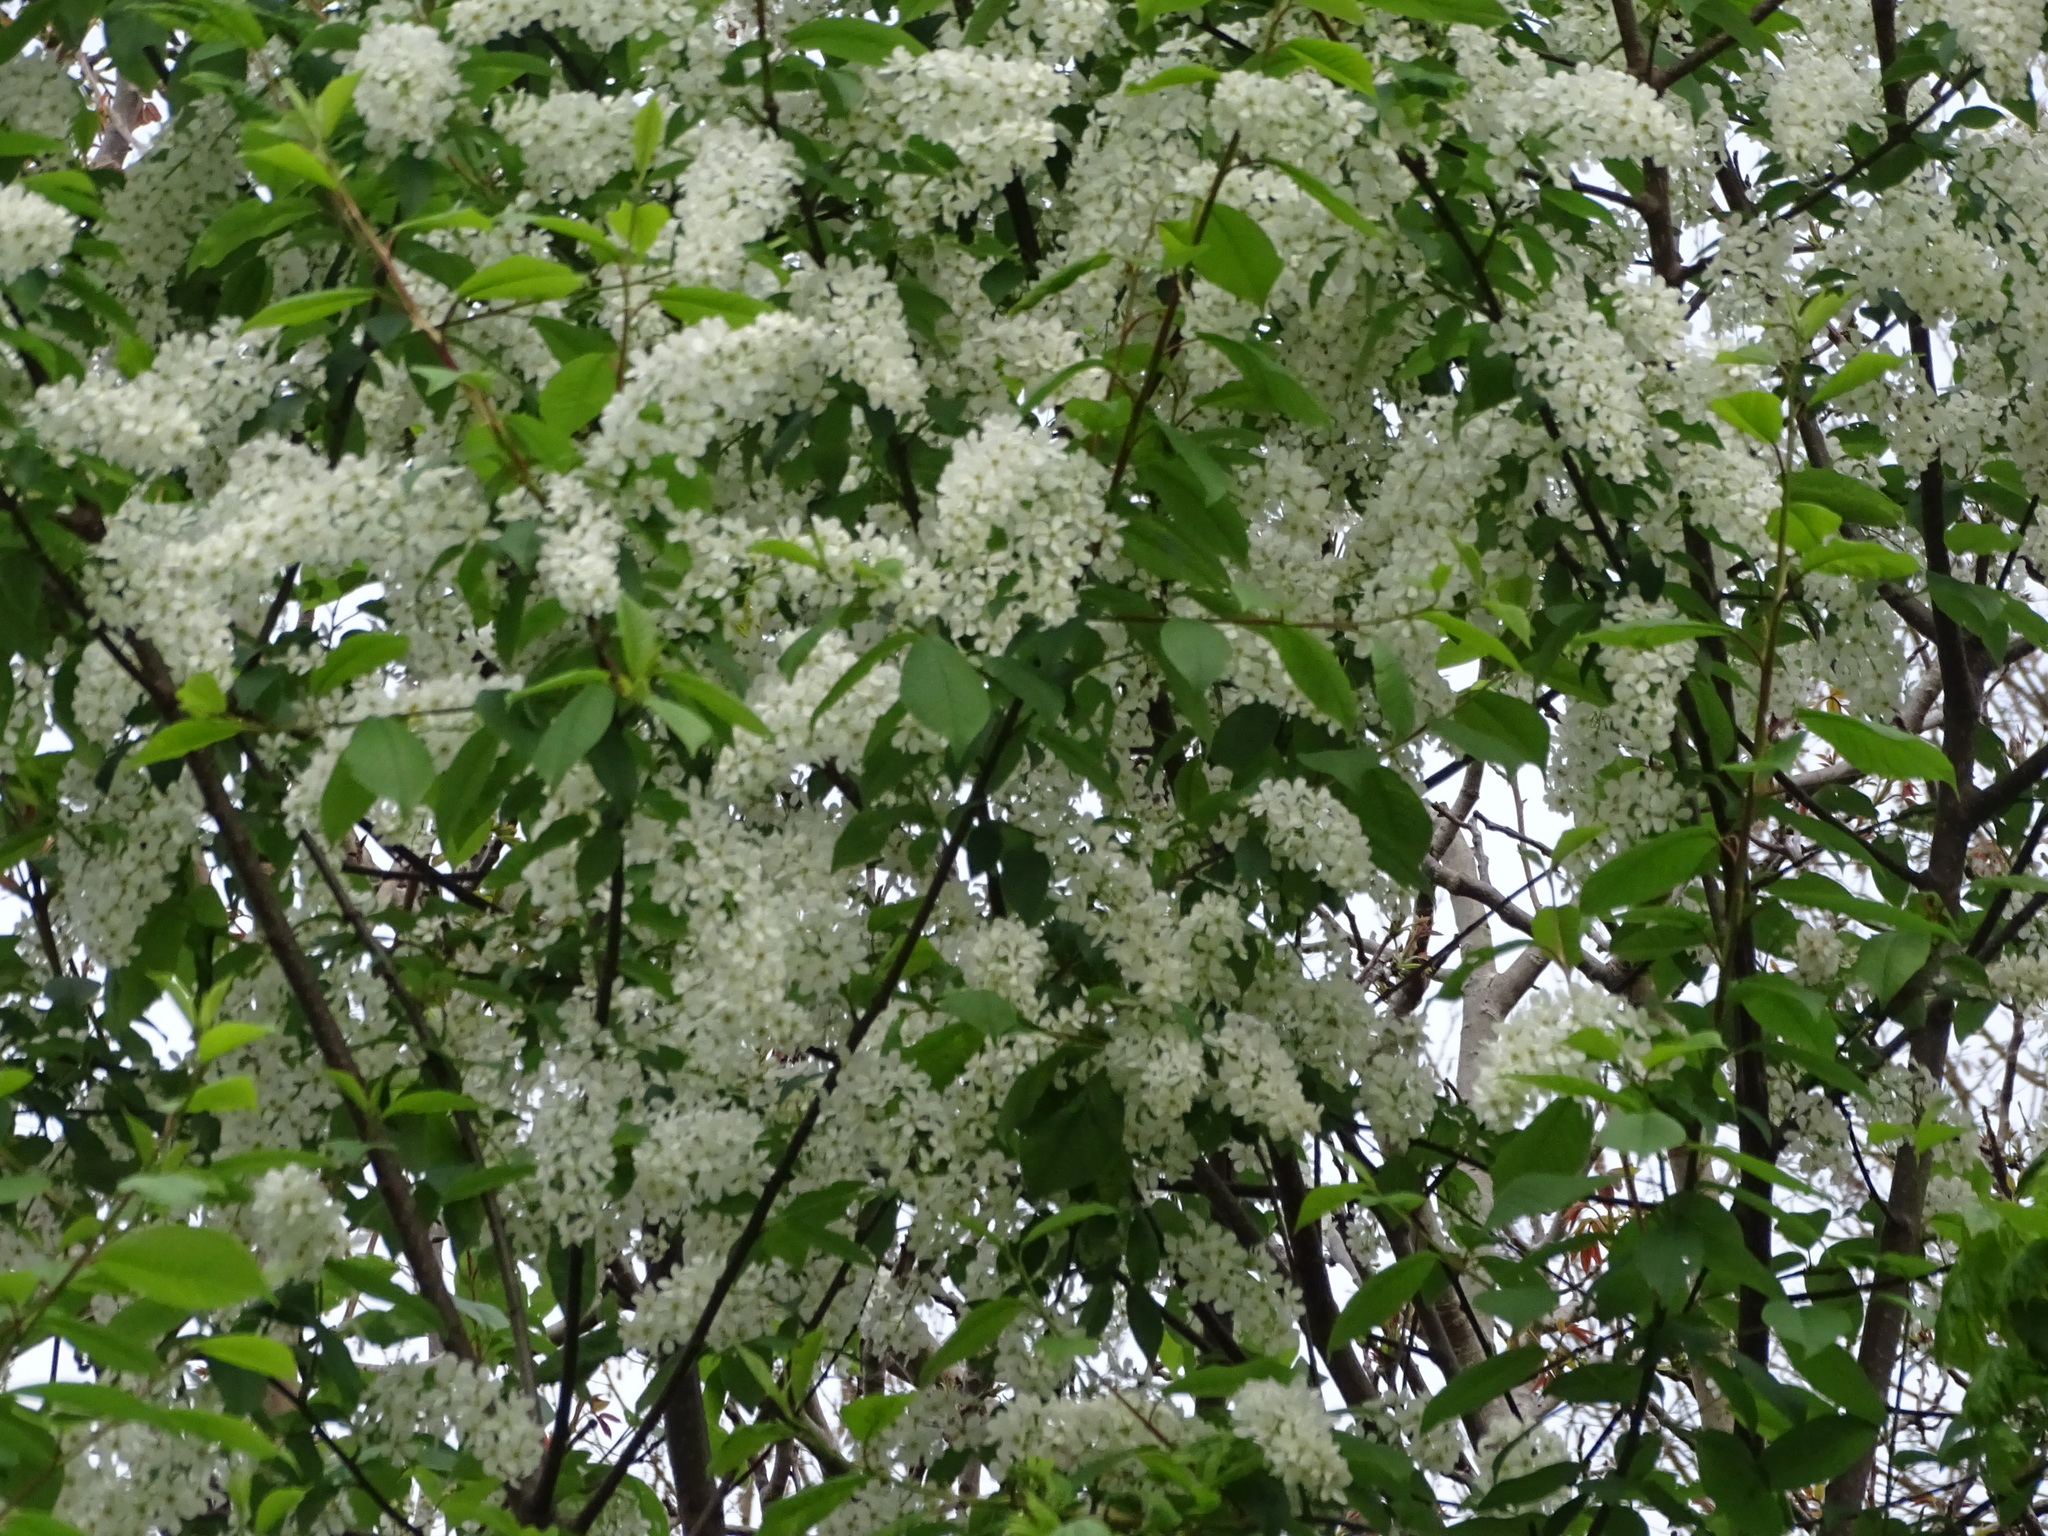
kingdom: Plantae
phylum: Tracheophyta
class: Magnoliopsida
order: Rosales
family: Rosaceae
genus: Prunus
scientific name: Prunus padus
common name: Bird cherry
